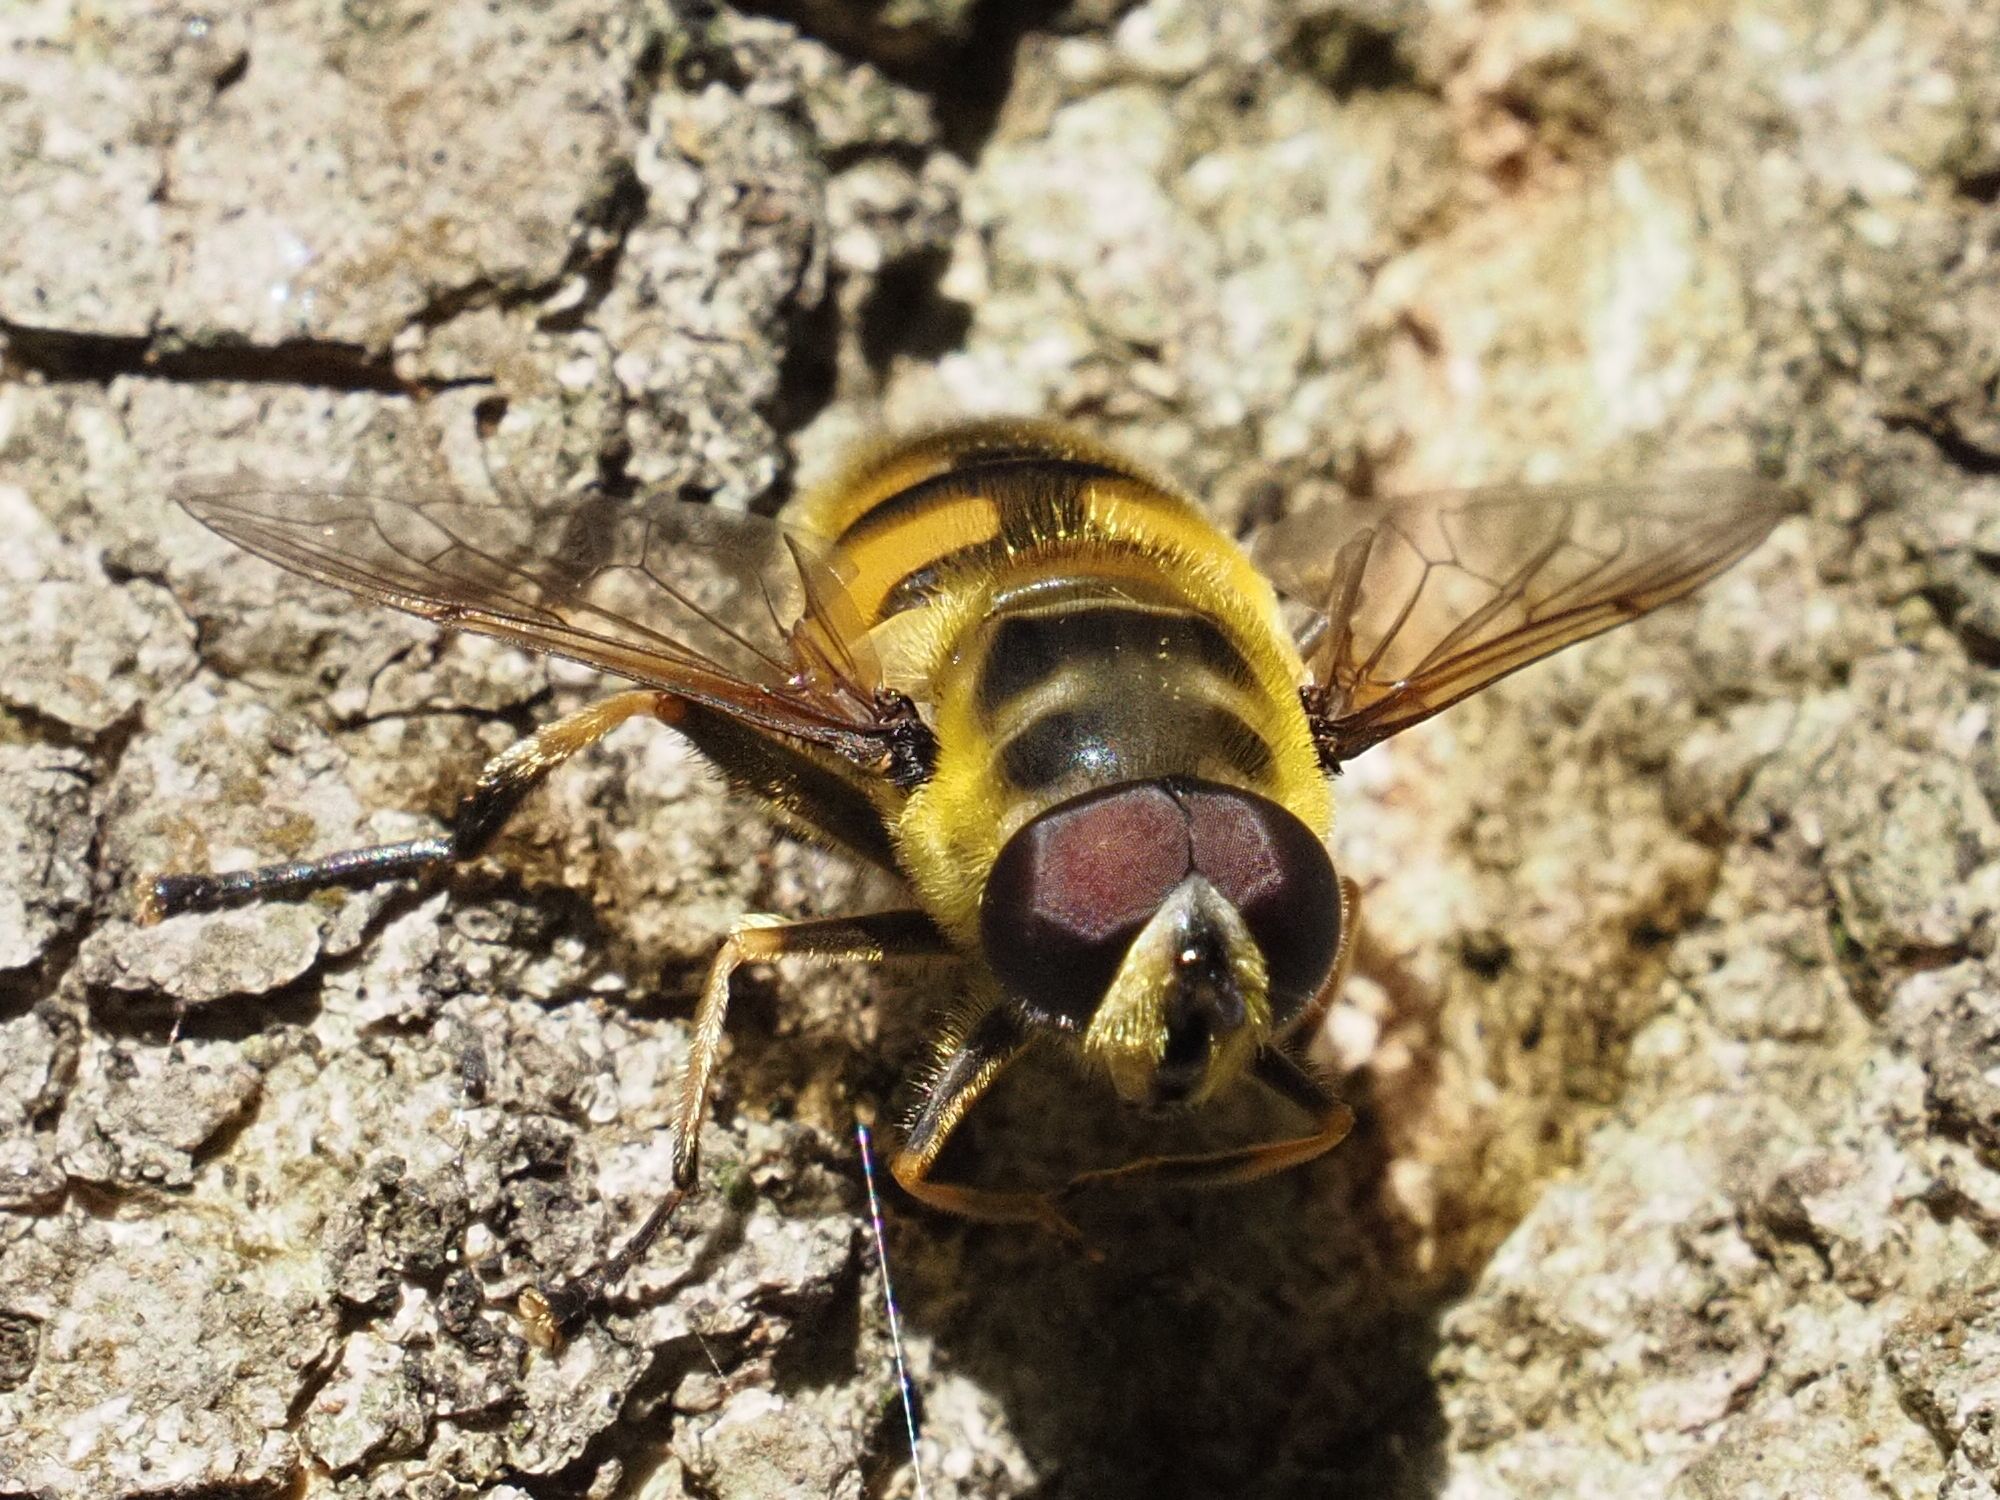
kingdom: Animalia
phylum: Arthropoda
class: Insecta
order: Diptera
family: Syrphidae
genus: Myathropa
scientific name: Myathropa florea
